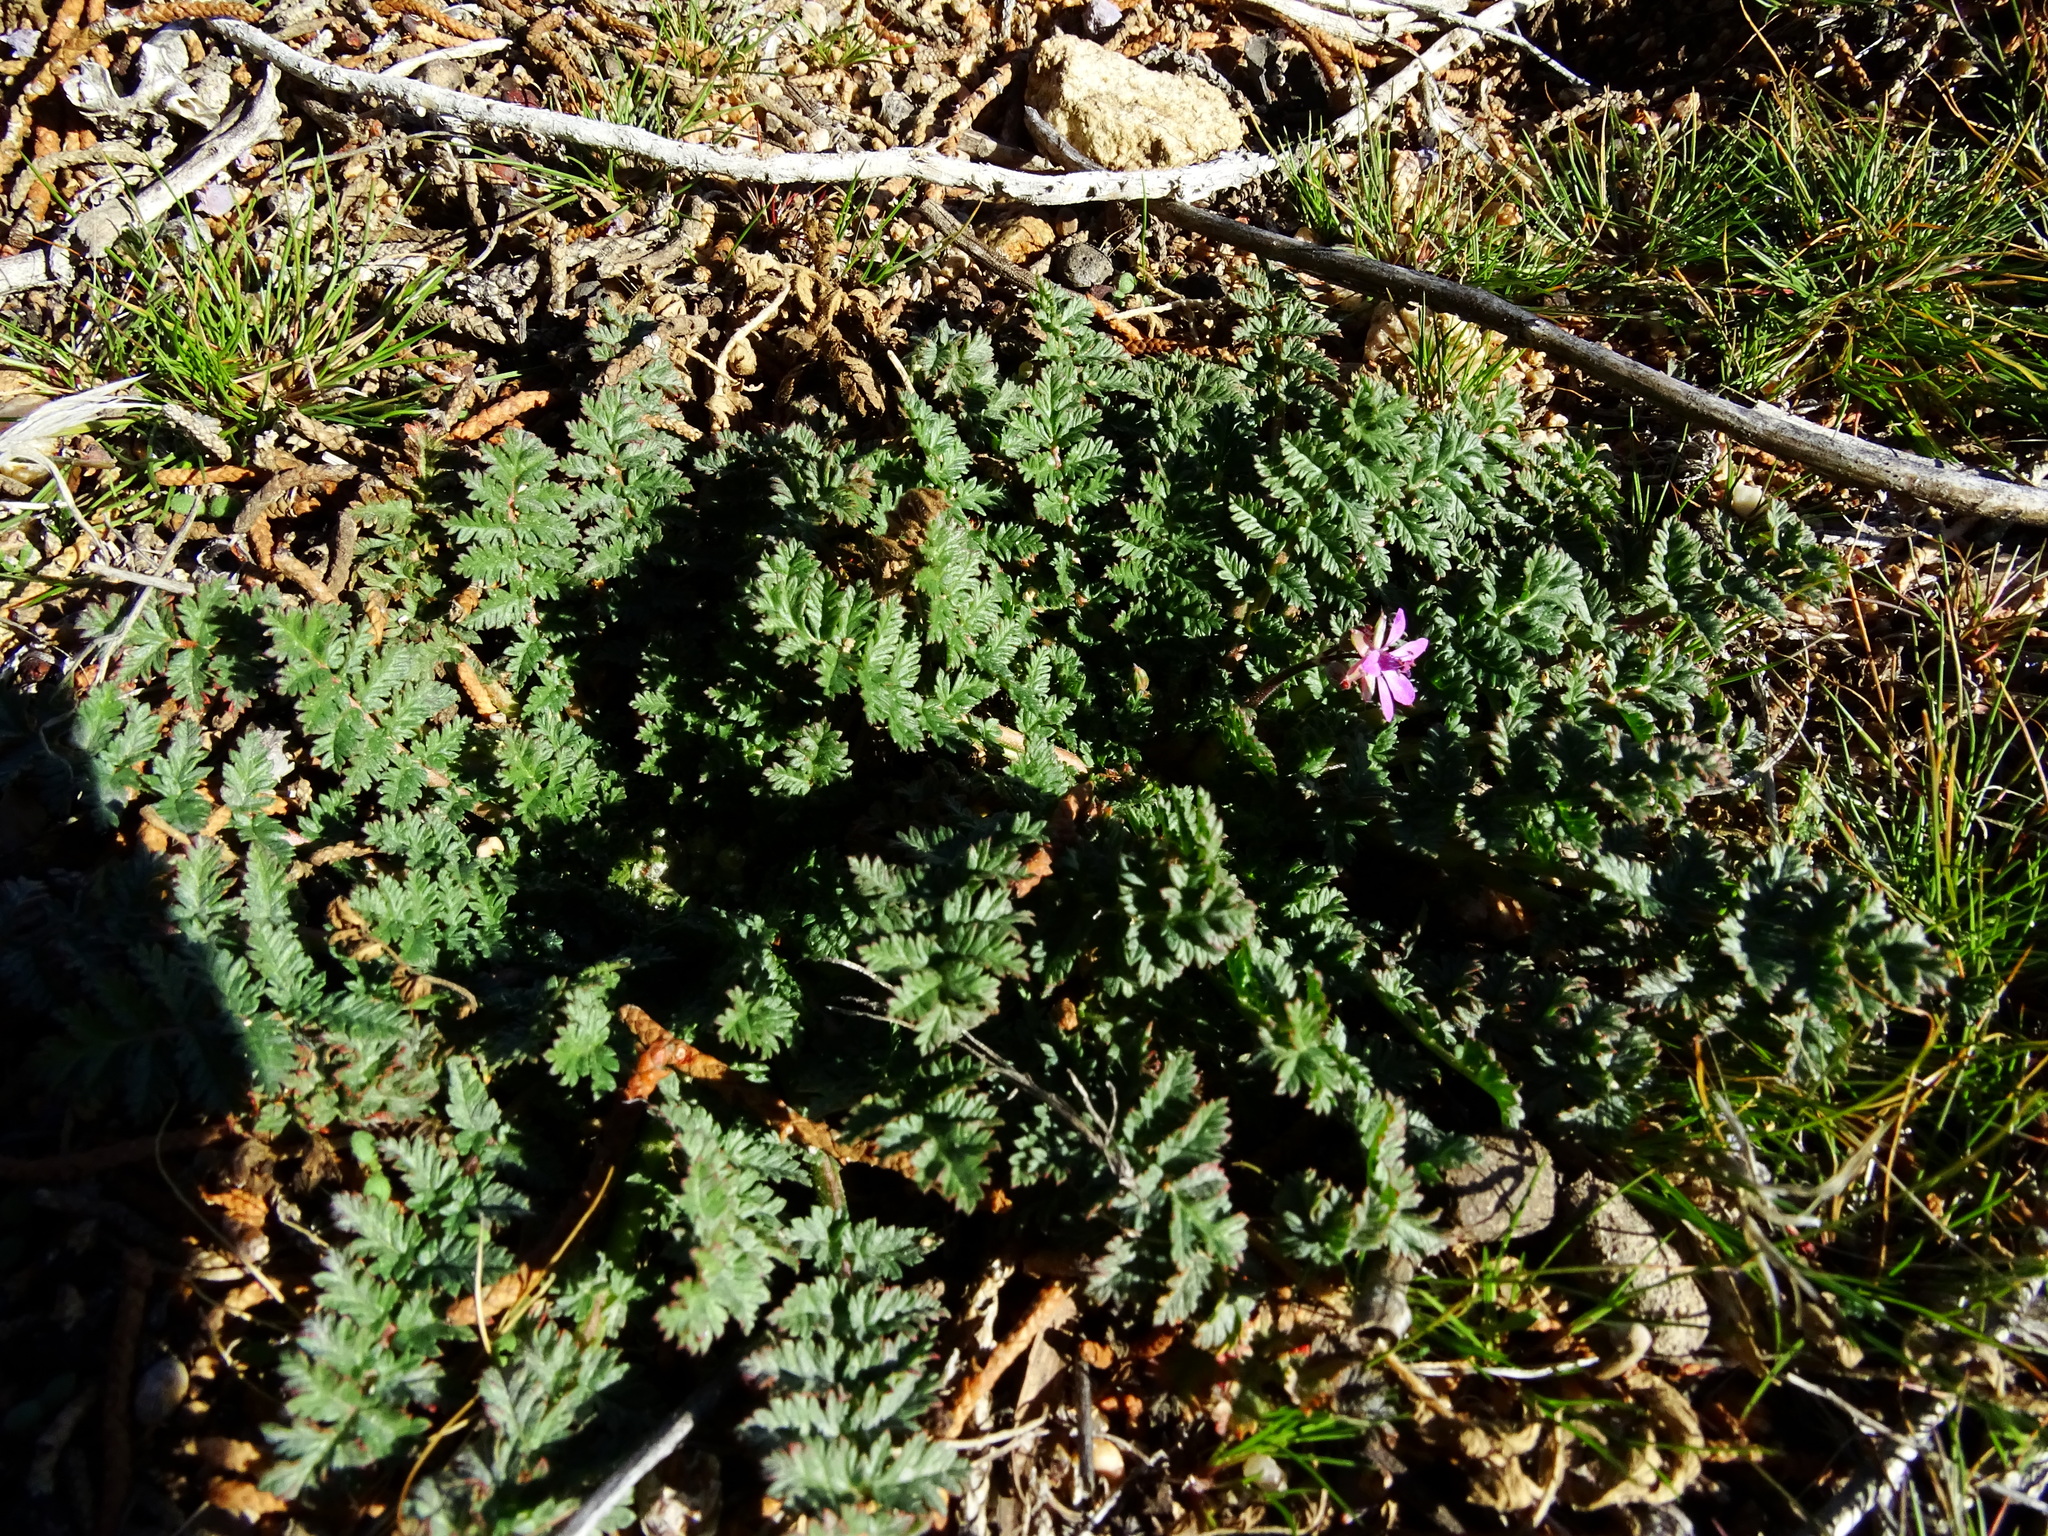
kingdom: Plantae
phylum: Tracheophyta
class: Magnoliopsida
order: Geraniales
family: Geraniaceae
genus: Erodium
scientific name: Erodium cicutarium
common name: Common stork's-bill
